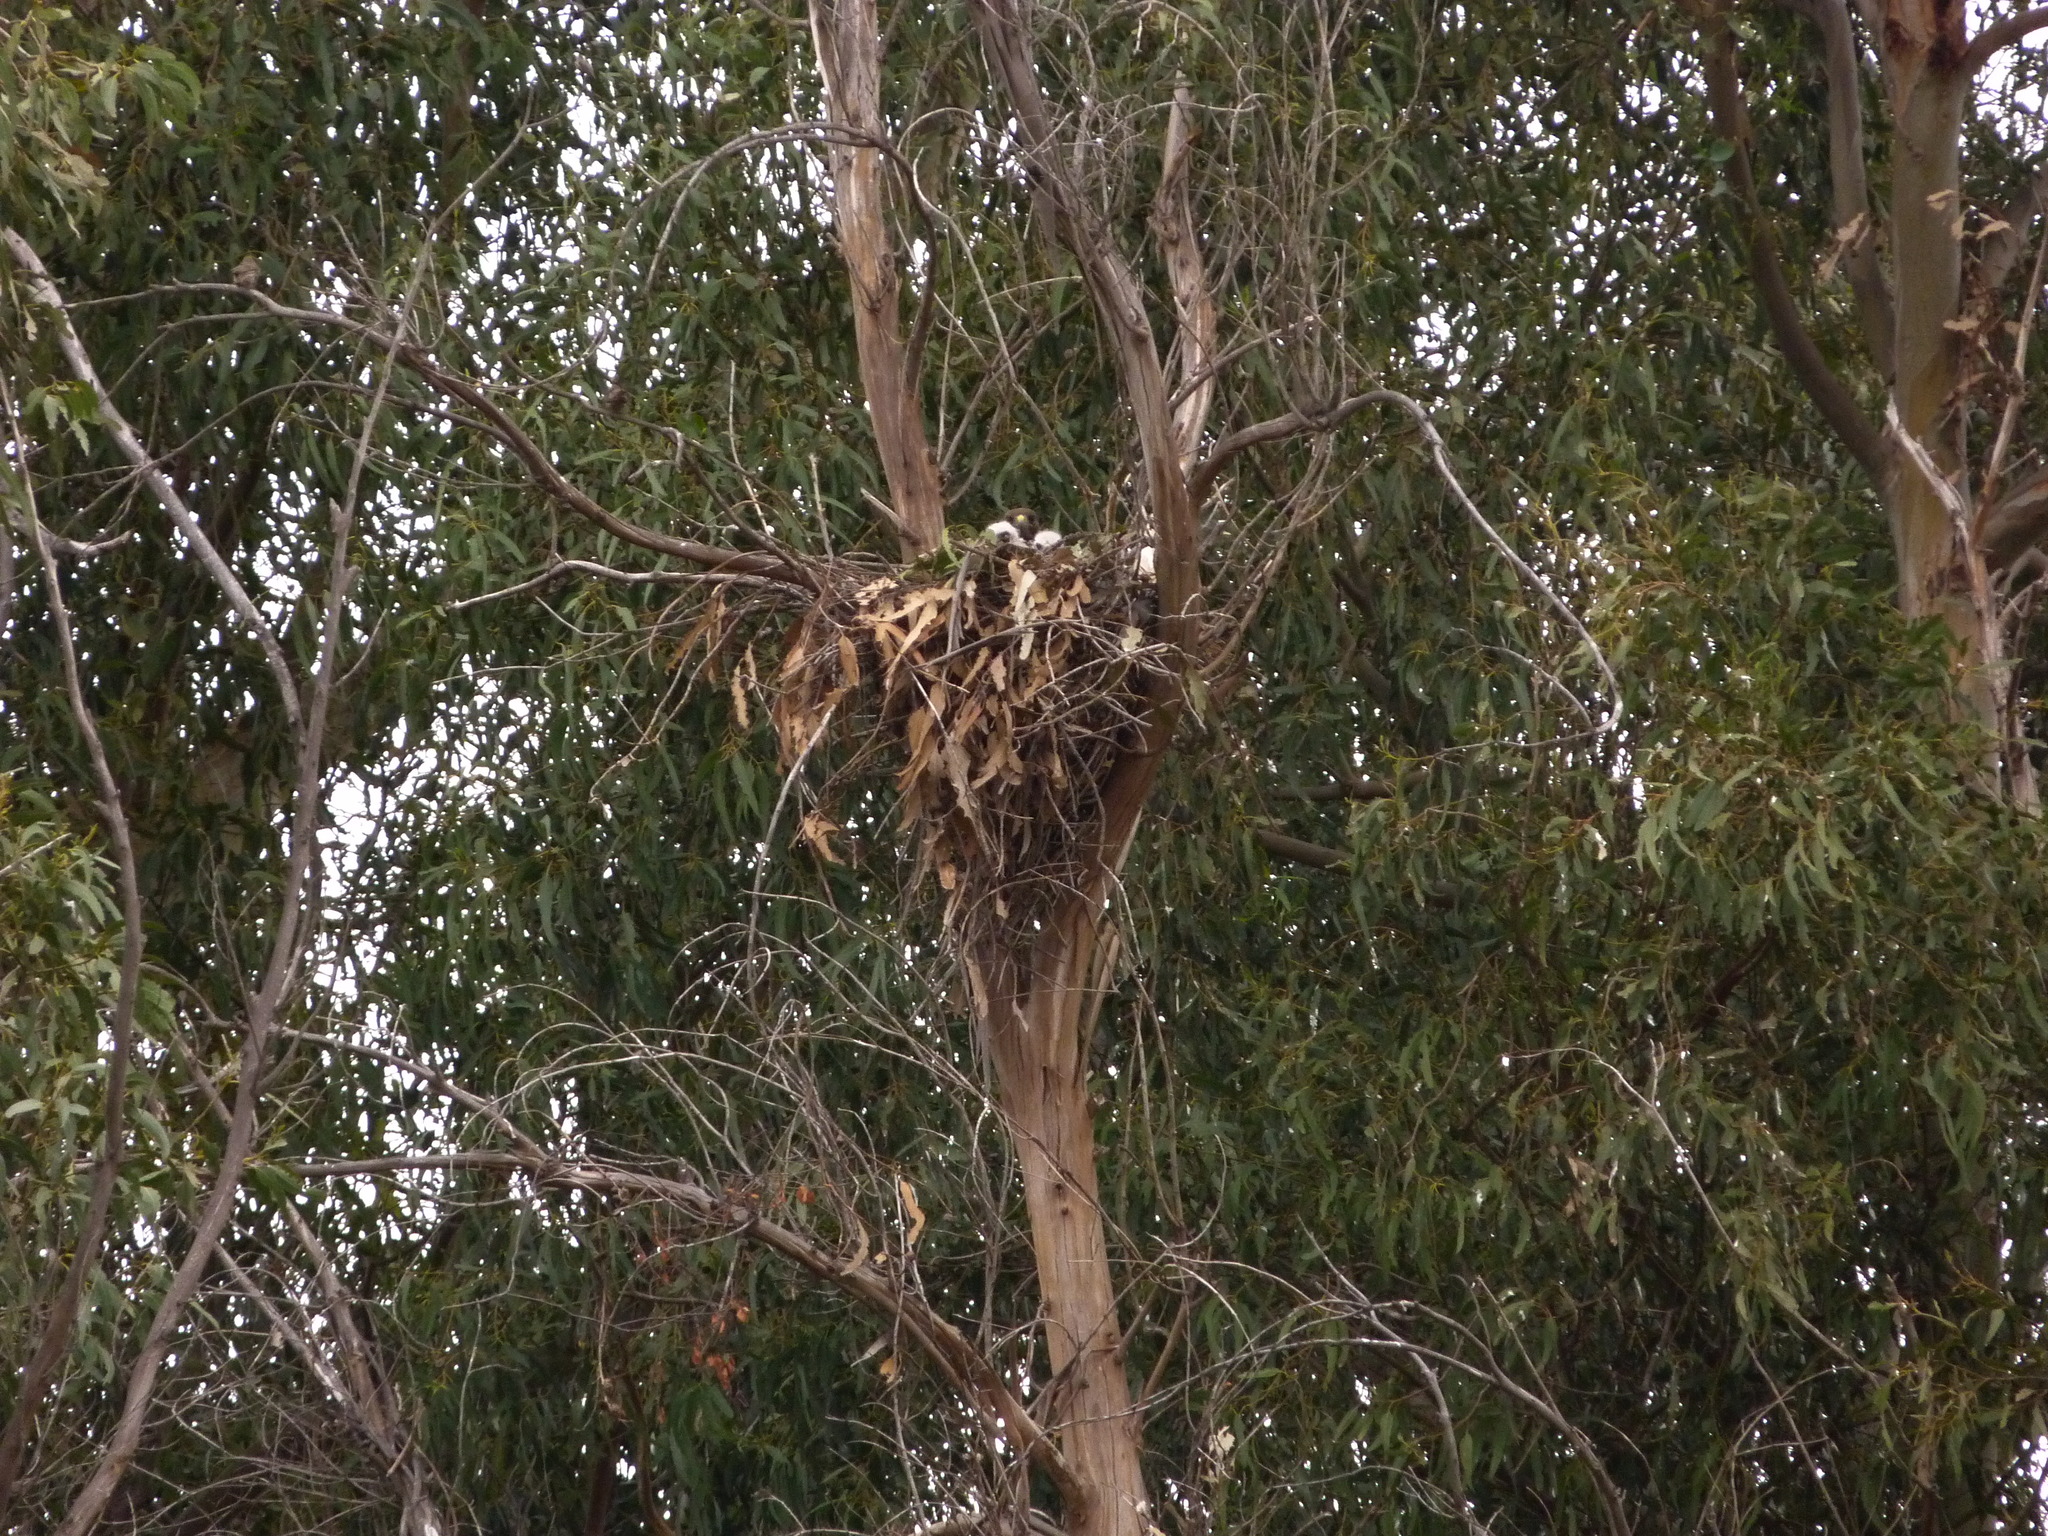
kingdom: Animalia
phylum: Chordata
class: Aves
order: Accipitriformes
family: Accipitridae
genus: Buteo
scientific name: Buteo jamaicensis
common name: Red-tailed hawk
